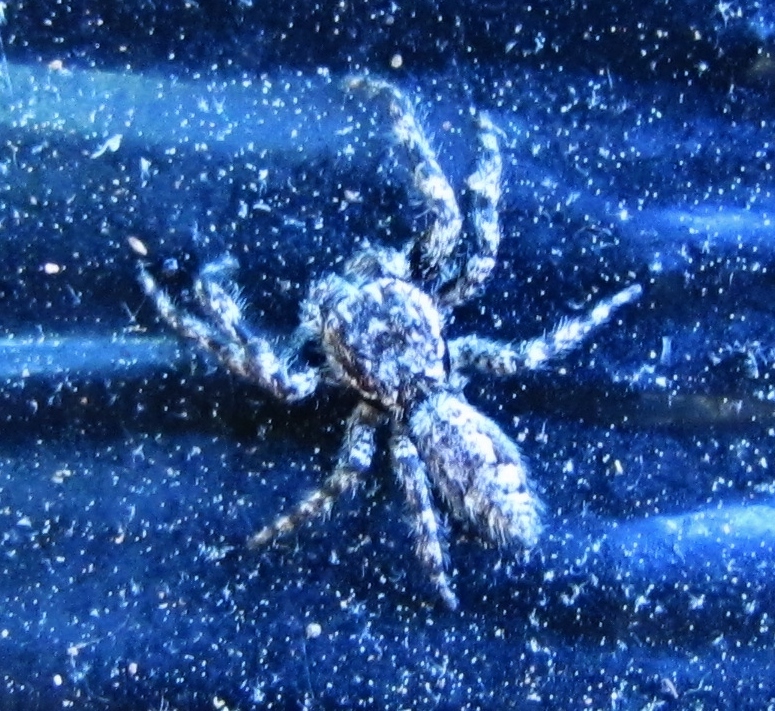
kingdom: Animalia
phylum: Arthropoda
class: Arachnida
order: Araneae
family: Salticidae
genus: Platycryptus
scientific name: Platycryptus undatus
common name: Tan jumping spider
